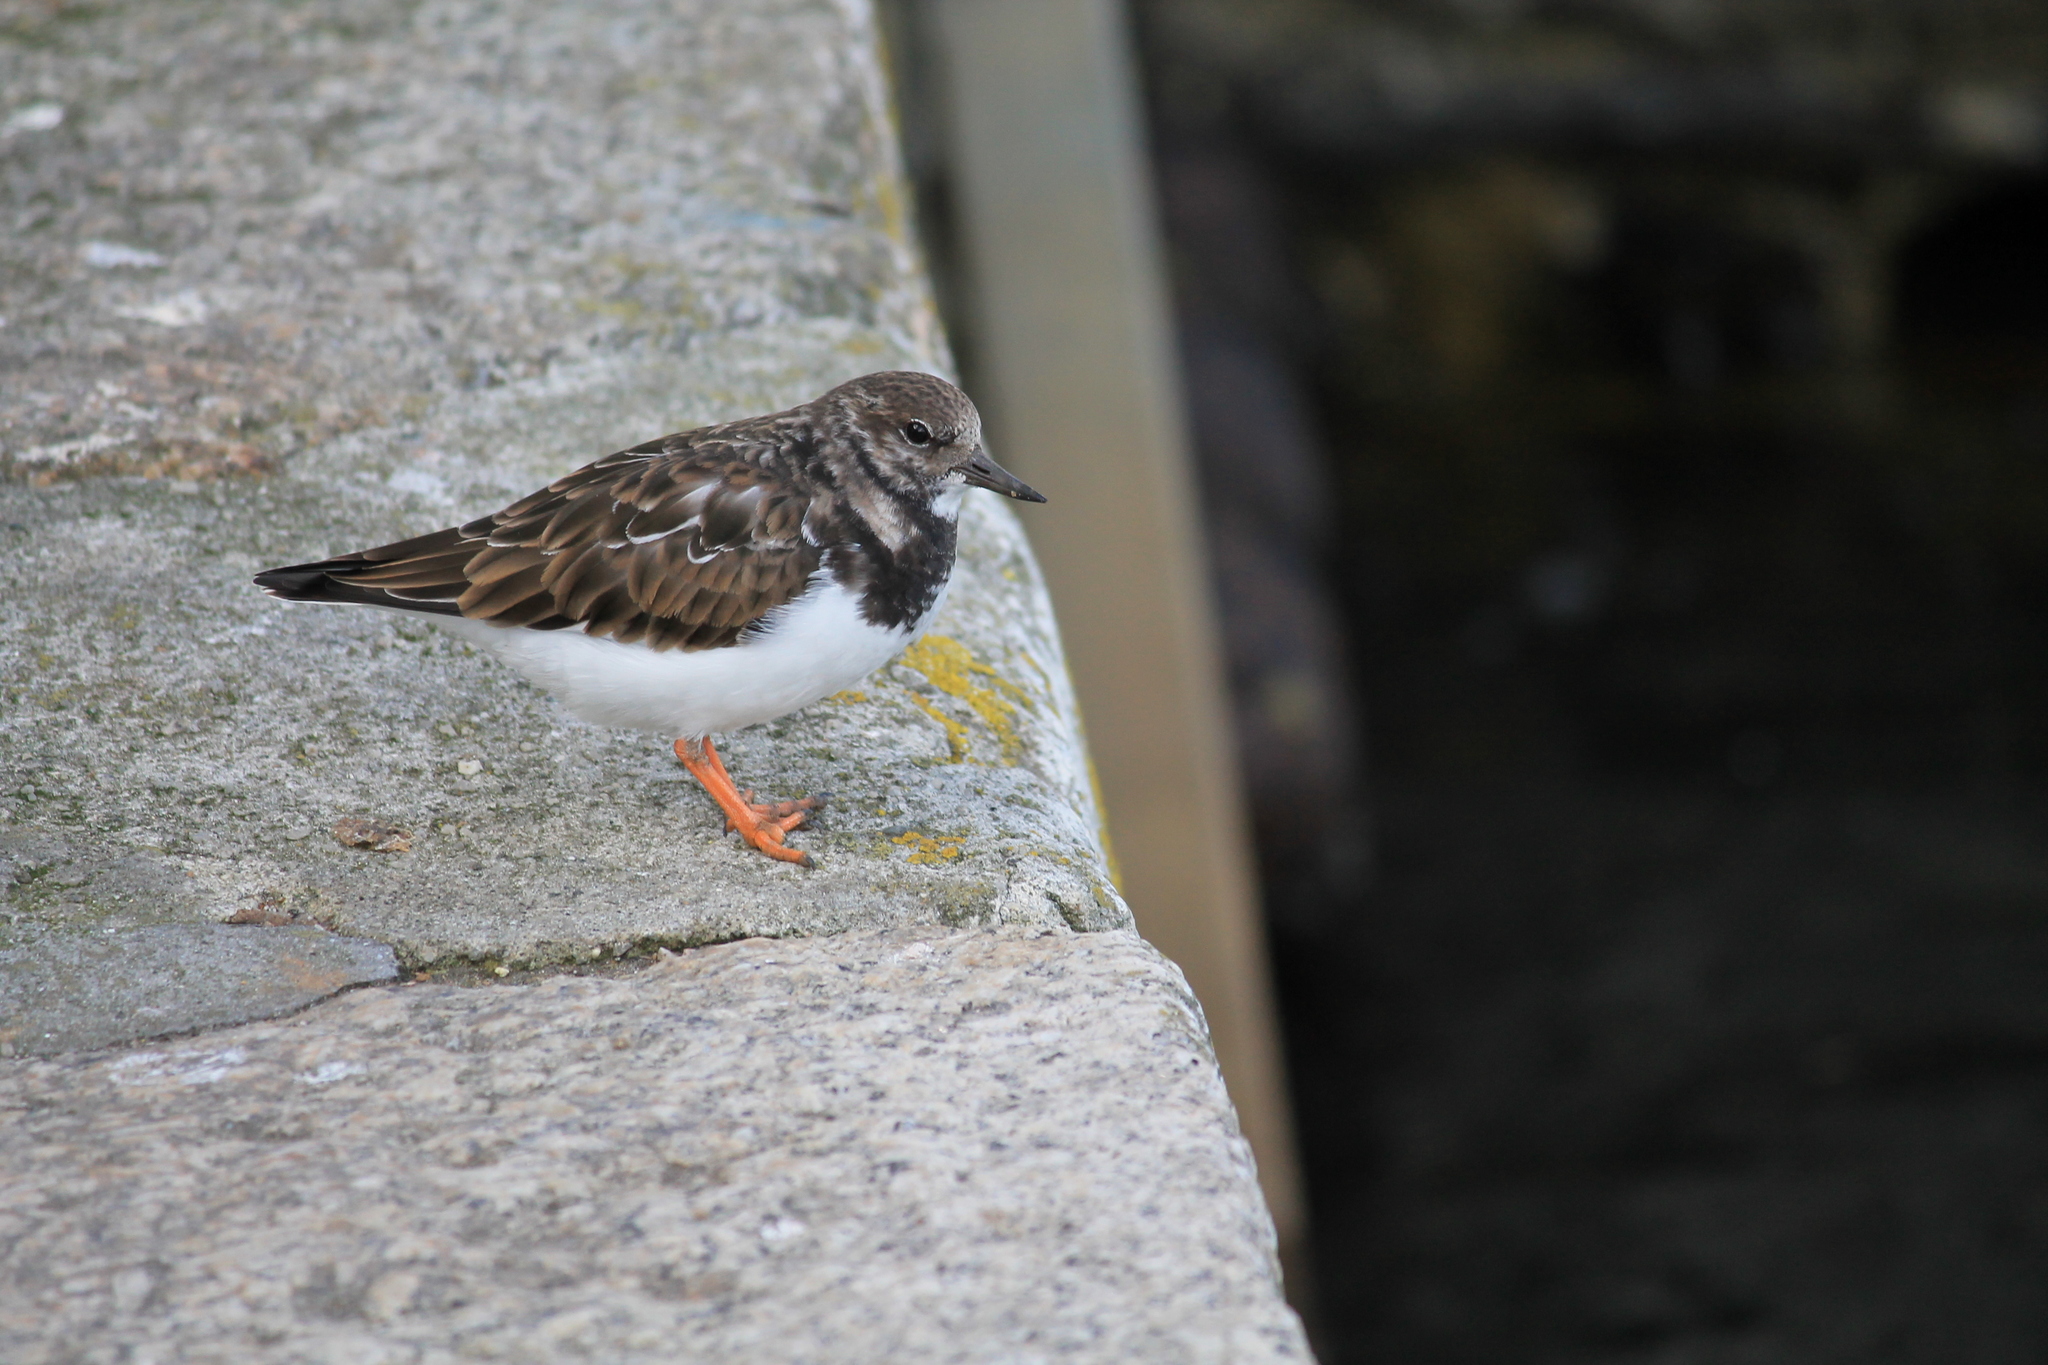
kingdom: Animalia
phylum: Chordata
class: Aves
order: Charadriiformes
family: Scolopacidae
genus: Arenaria
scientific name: Arenaria interpres
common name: Ruddy turnstone
